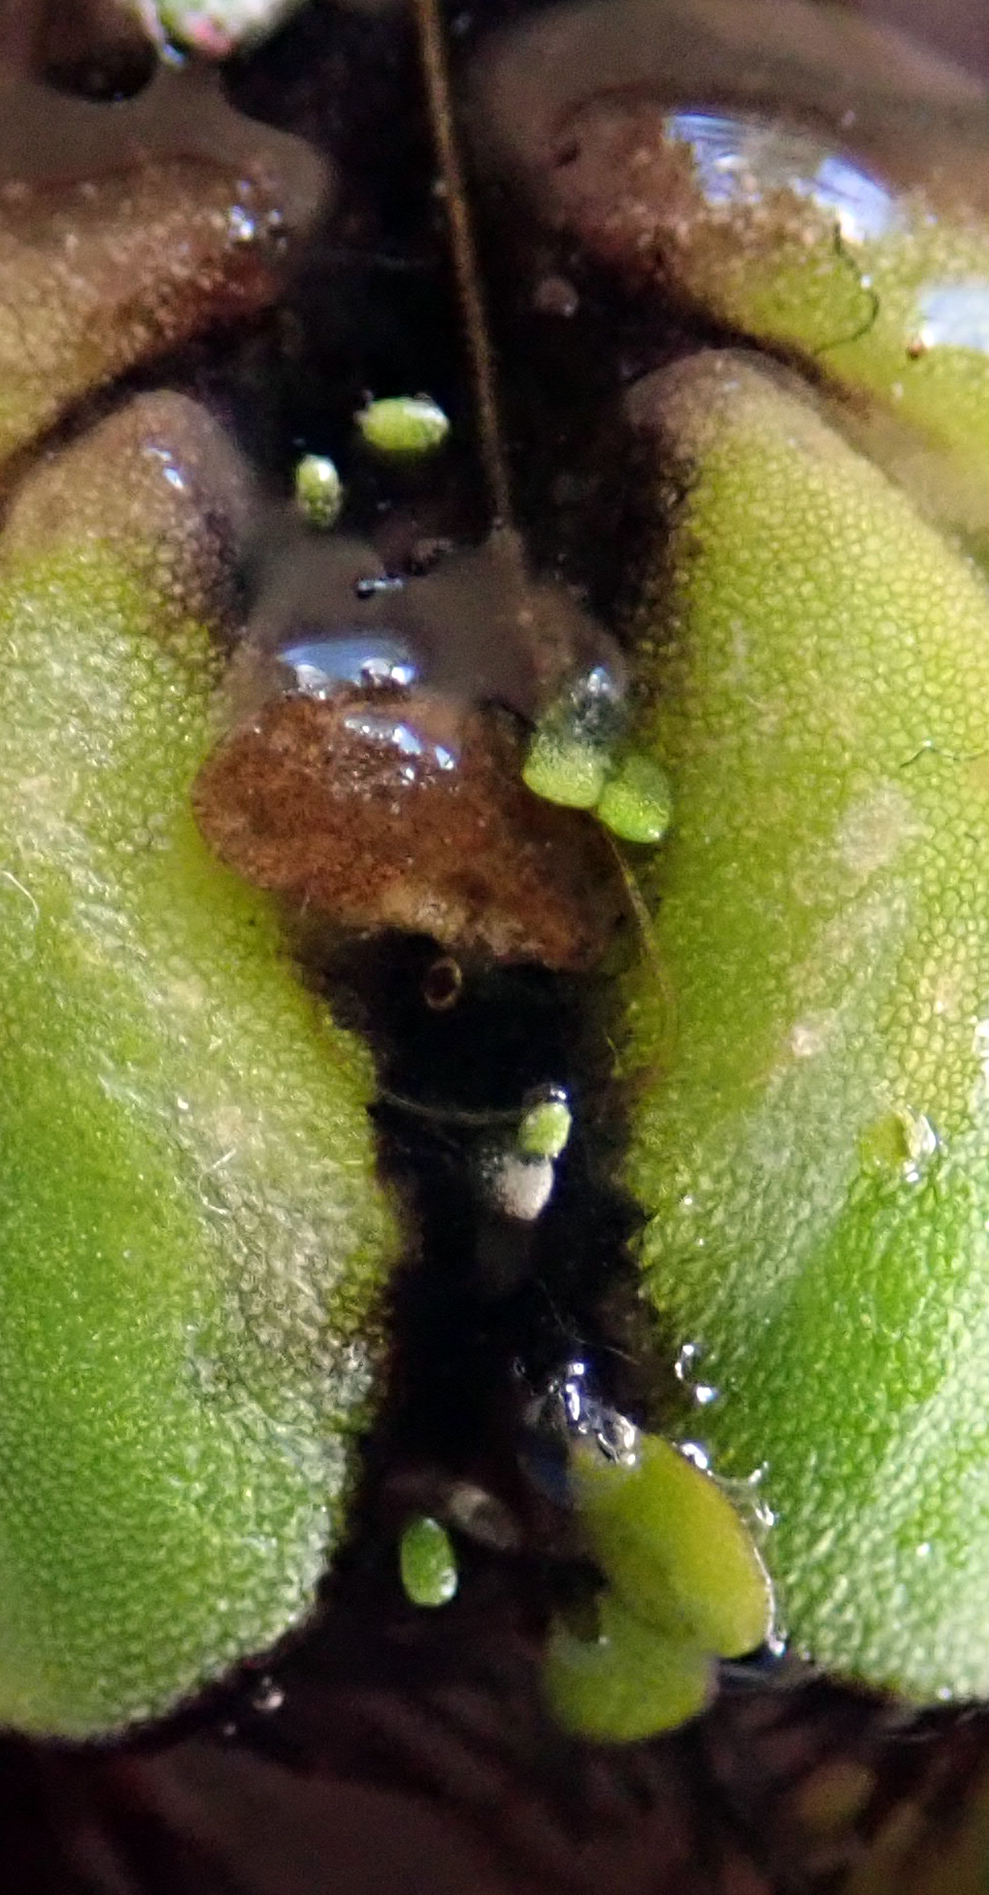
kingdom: Plantae
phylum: Tracheophyta
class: Liliopsida
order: Alismatales
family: Araceae
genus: Wolffia
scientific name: Wolffia australiana
